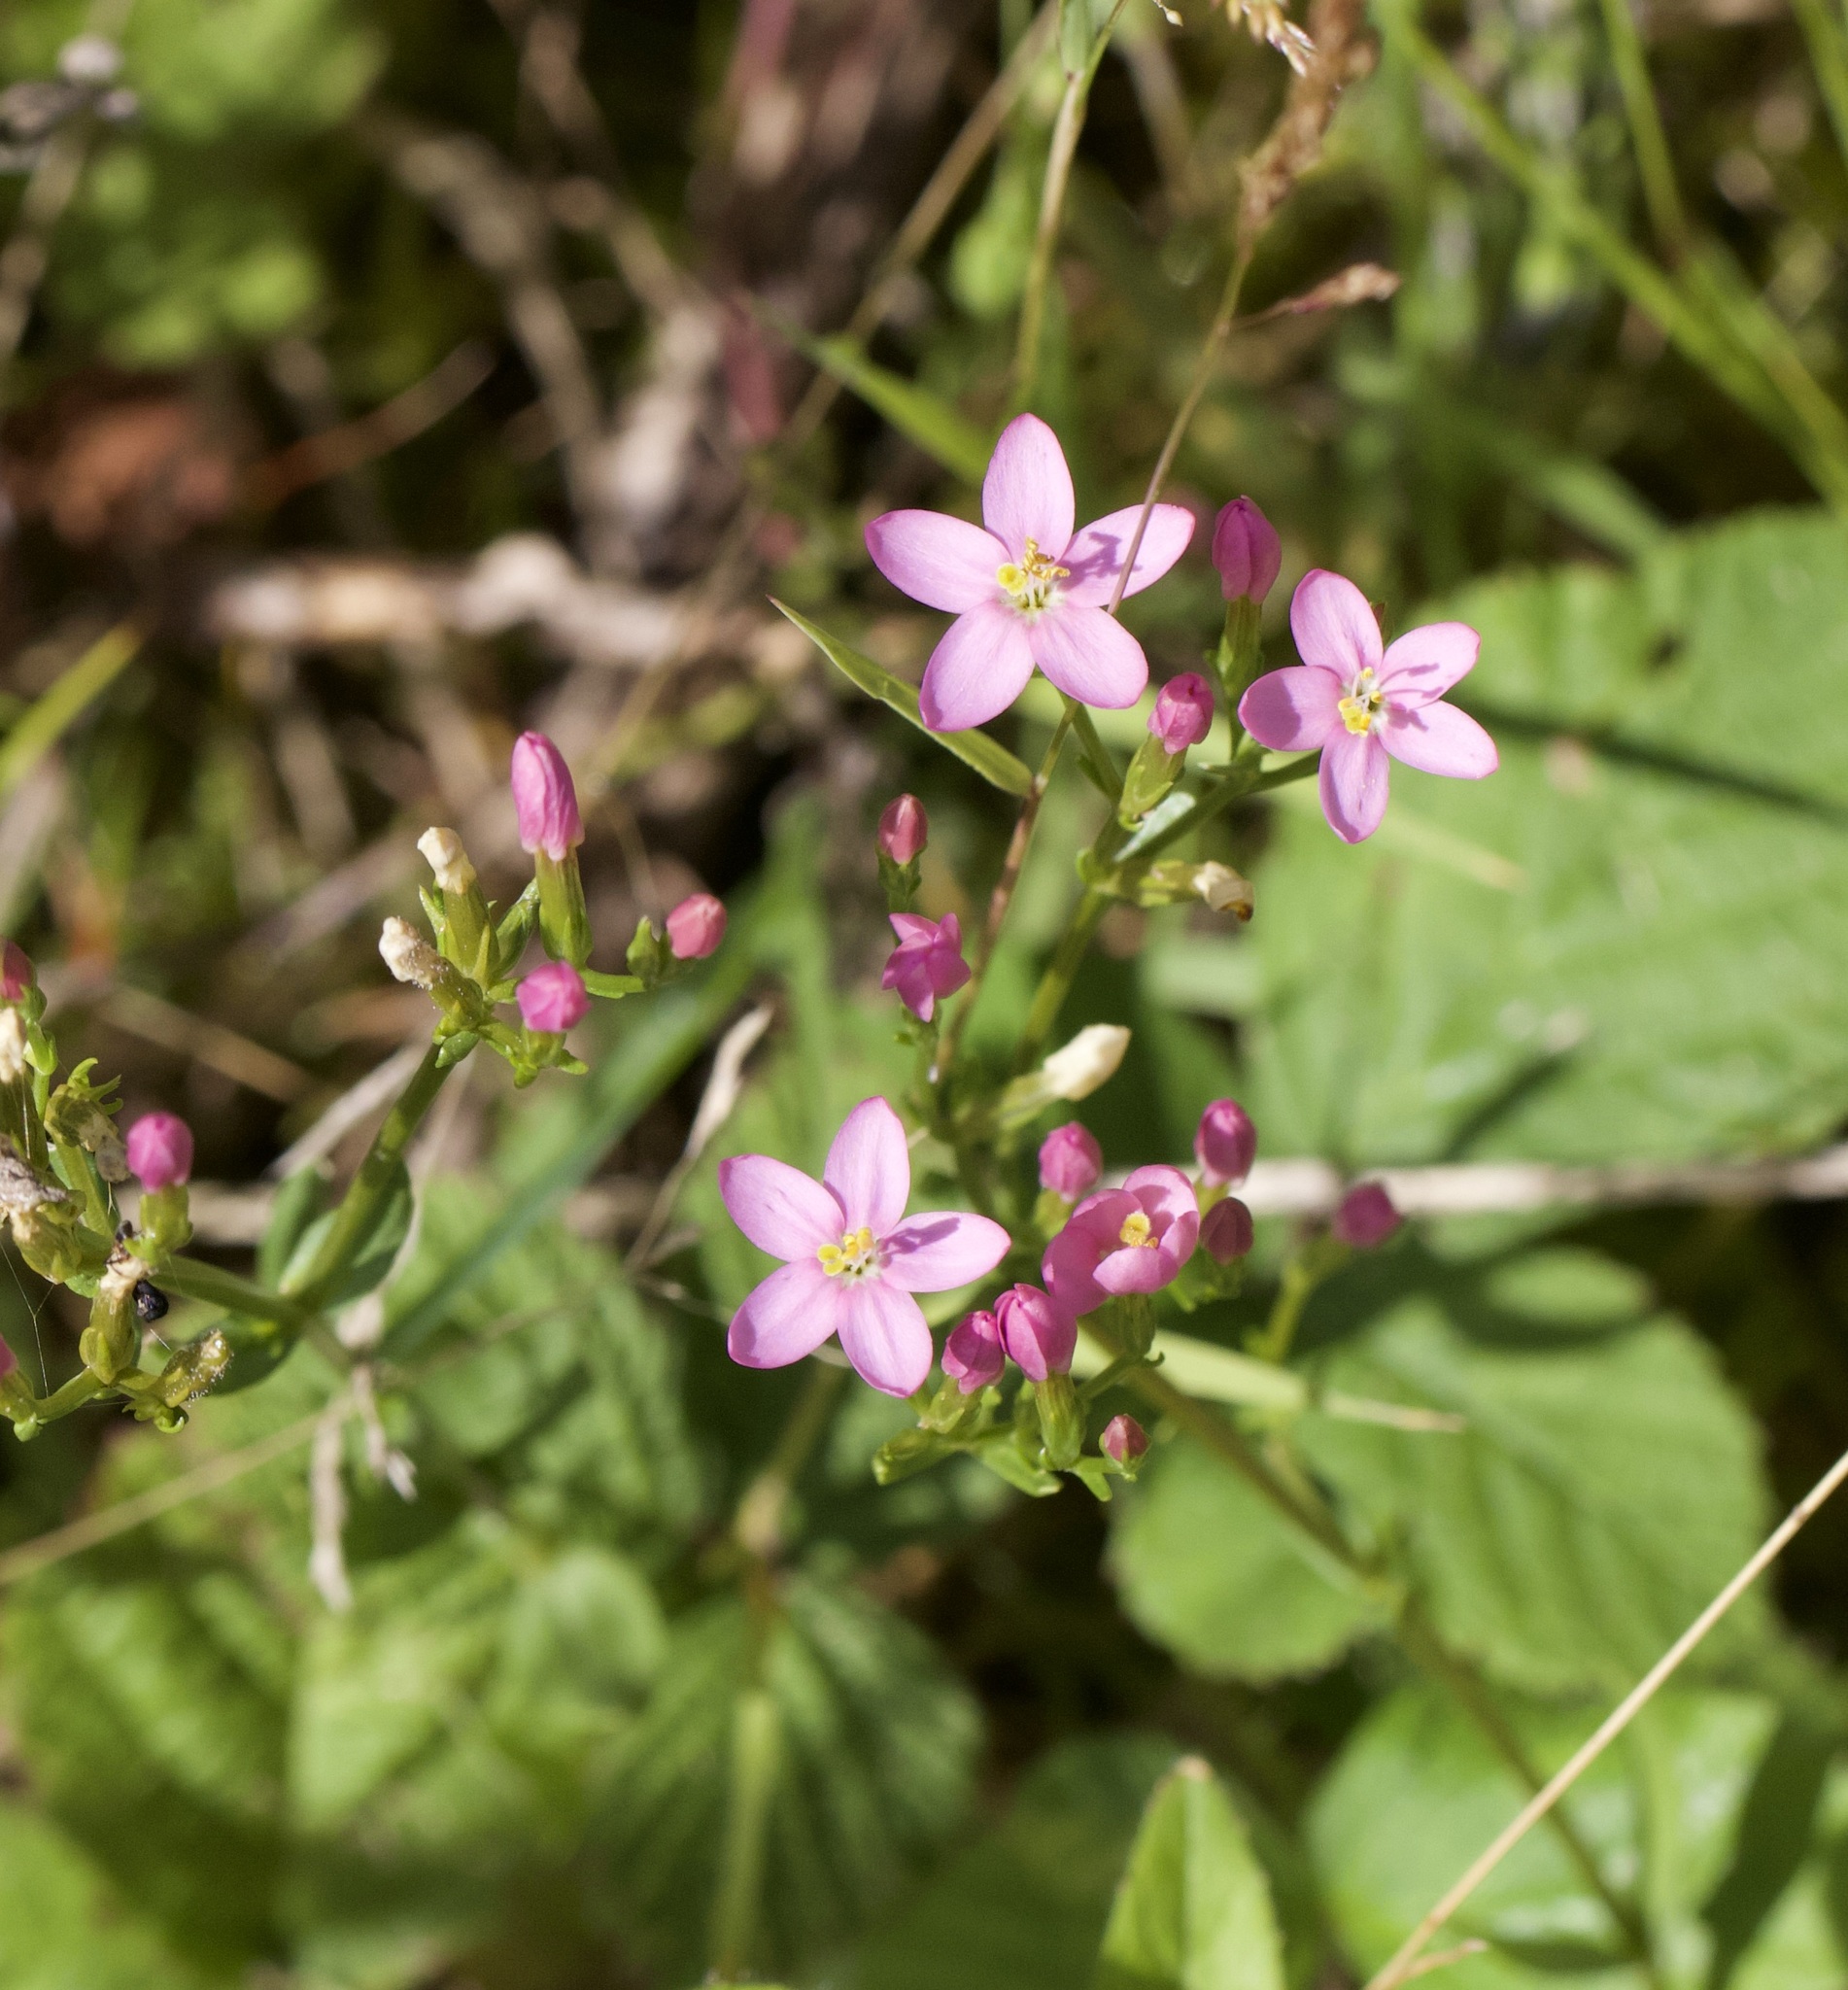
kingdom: Plantae
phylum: Tracheophyta
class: Magnoliopsida
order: Gentianales
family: Gentianaceae
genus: Centaurium
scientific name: Centaurium erythraea
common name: Common centaury
